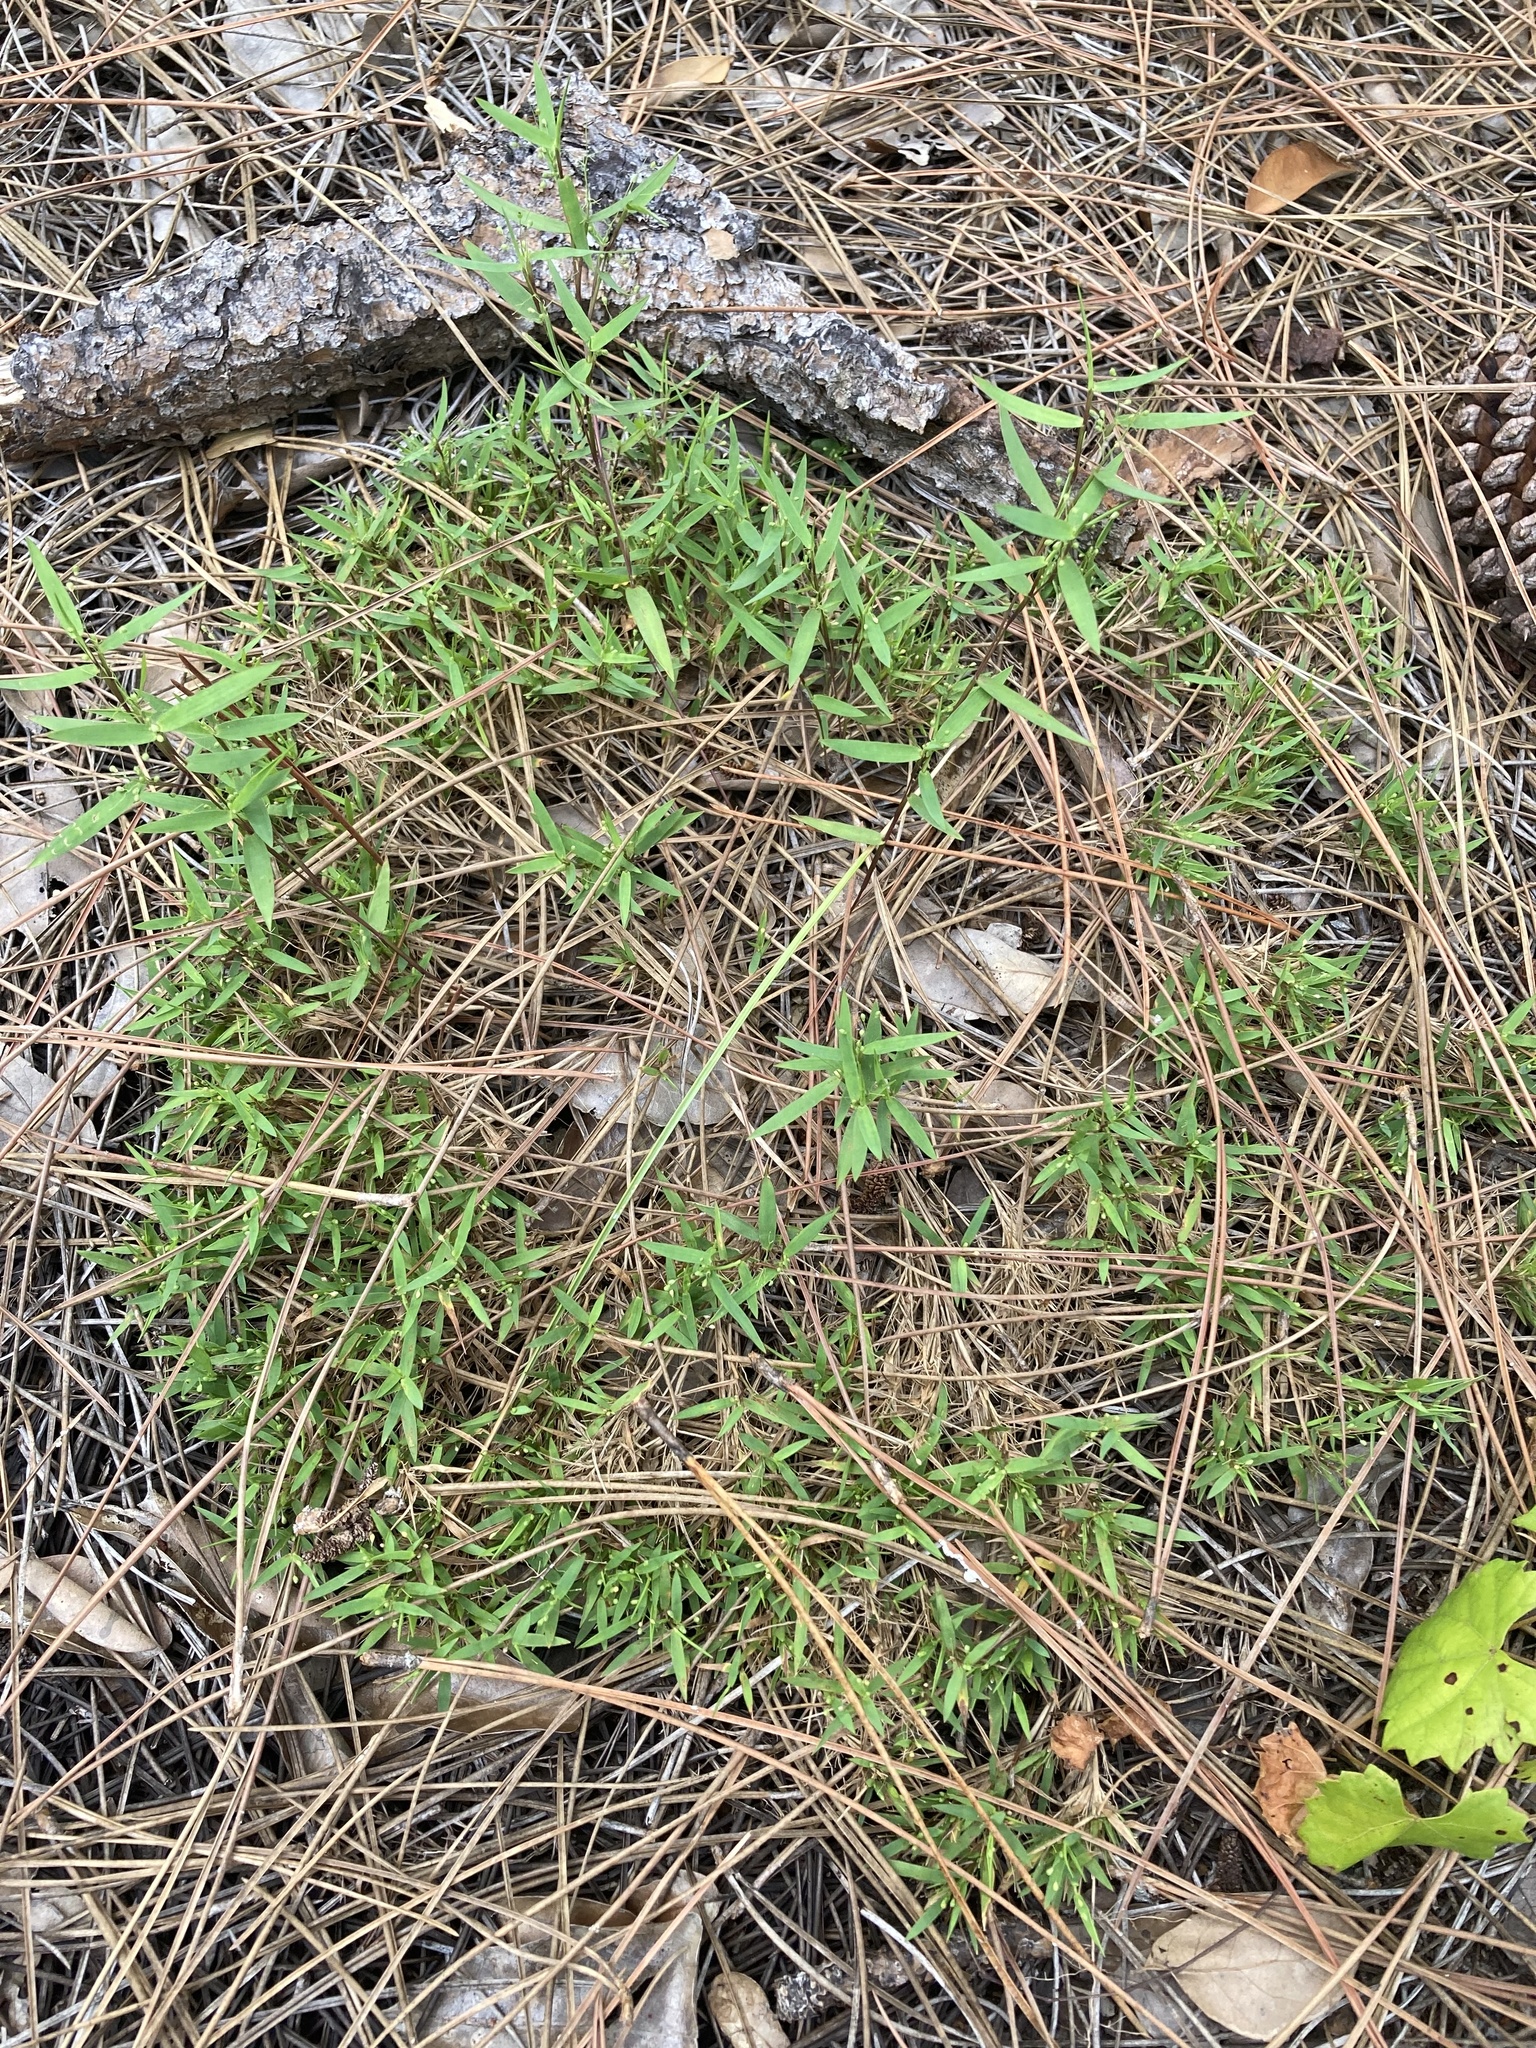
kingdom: Plantae
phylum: Tracheophyta
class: Liliopsida
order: Poales
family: Poaceae
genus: Dichanthelium
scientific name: Dichanthelium patulum
